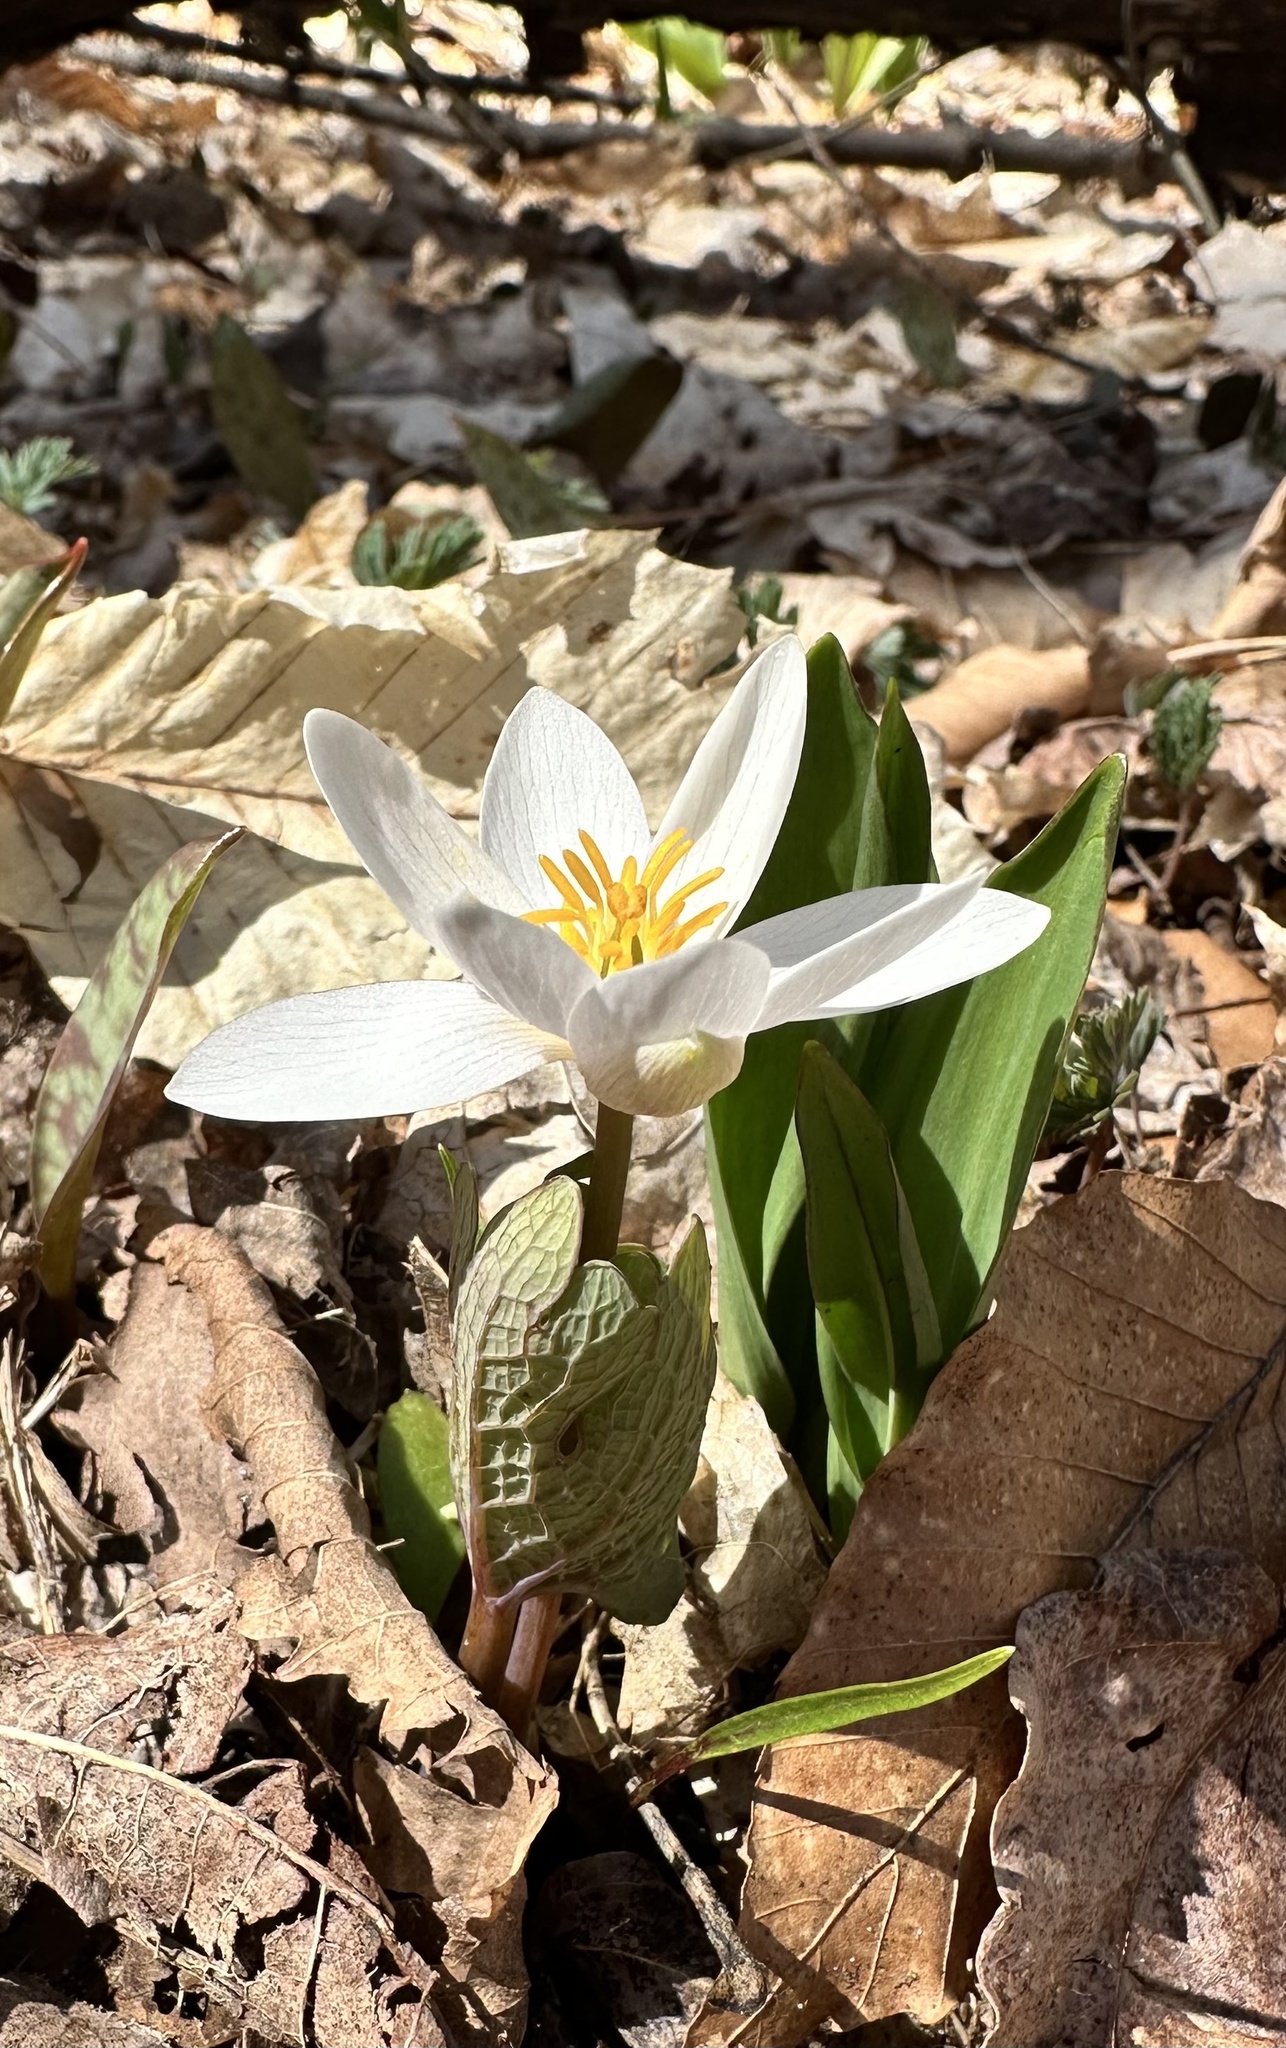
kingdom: Plantae
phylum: Tracheophyta
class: Magnoliopsida
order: Ranunculales
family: Papaveraceae
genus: Sanguinaria
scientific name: Sanguinaria canadensis
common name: Bloodroot
